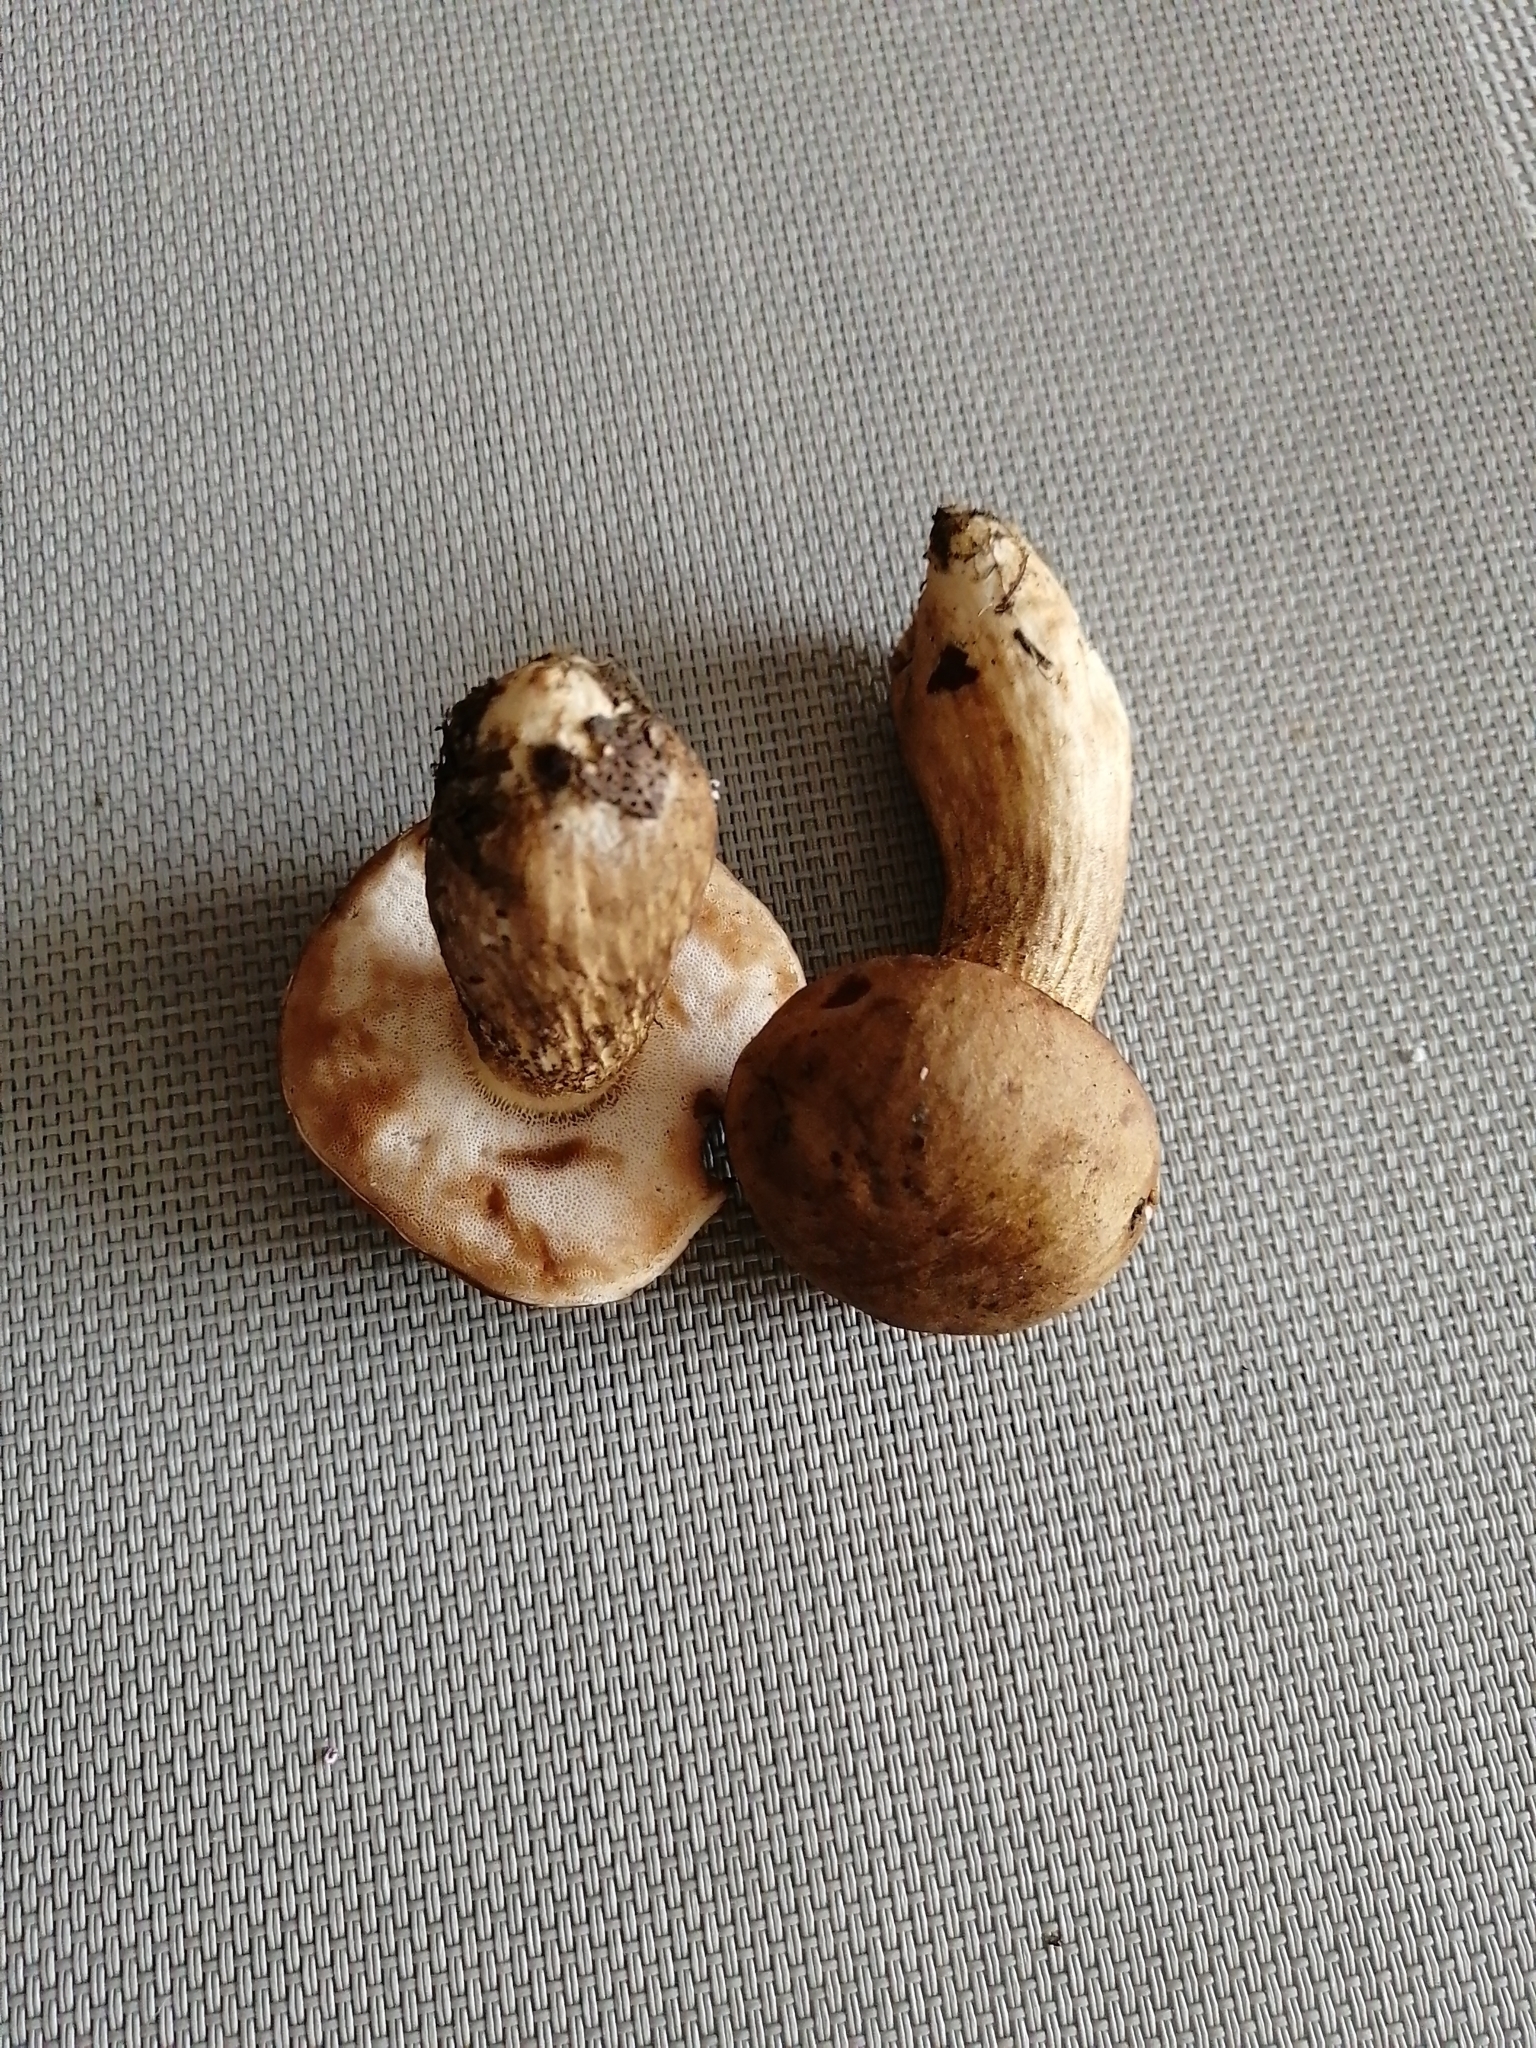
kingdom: Fungi
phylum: Basidiomycota
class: Agaricomycetes
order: Boletales
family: Boletaceae
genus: Tylopilus
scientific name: Tylopilus felleus
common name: Bitter bolete
